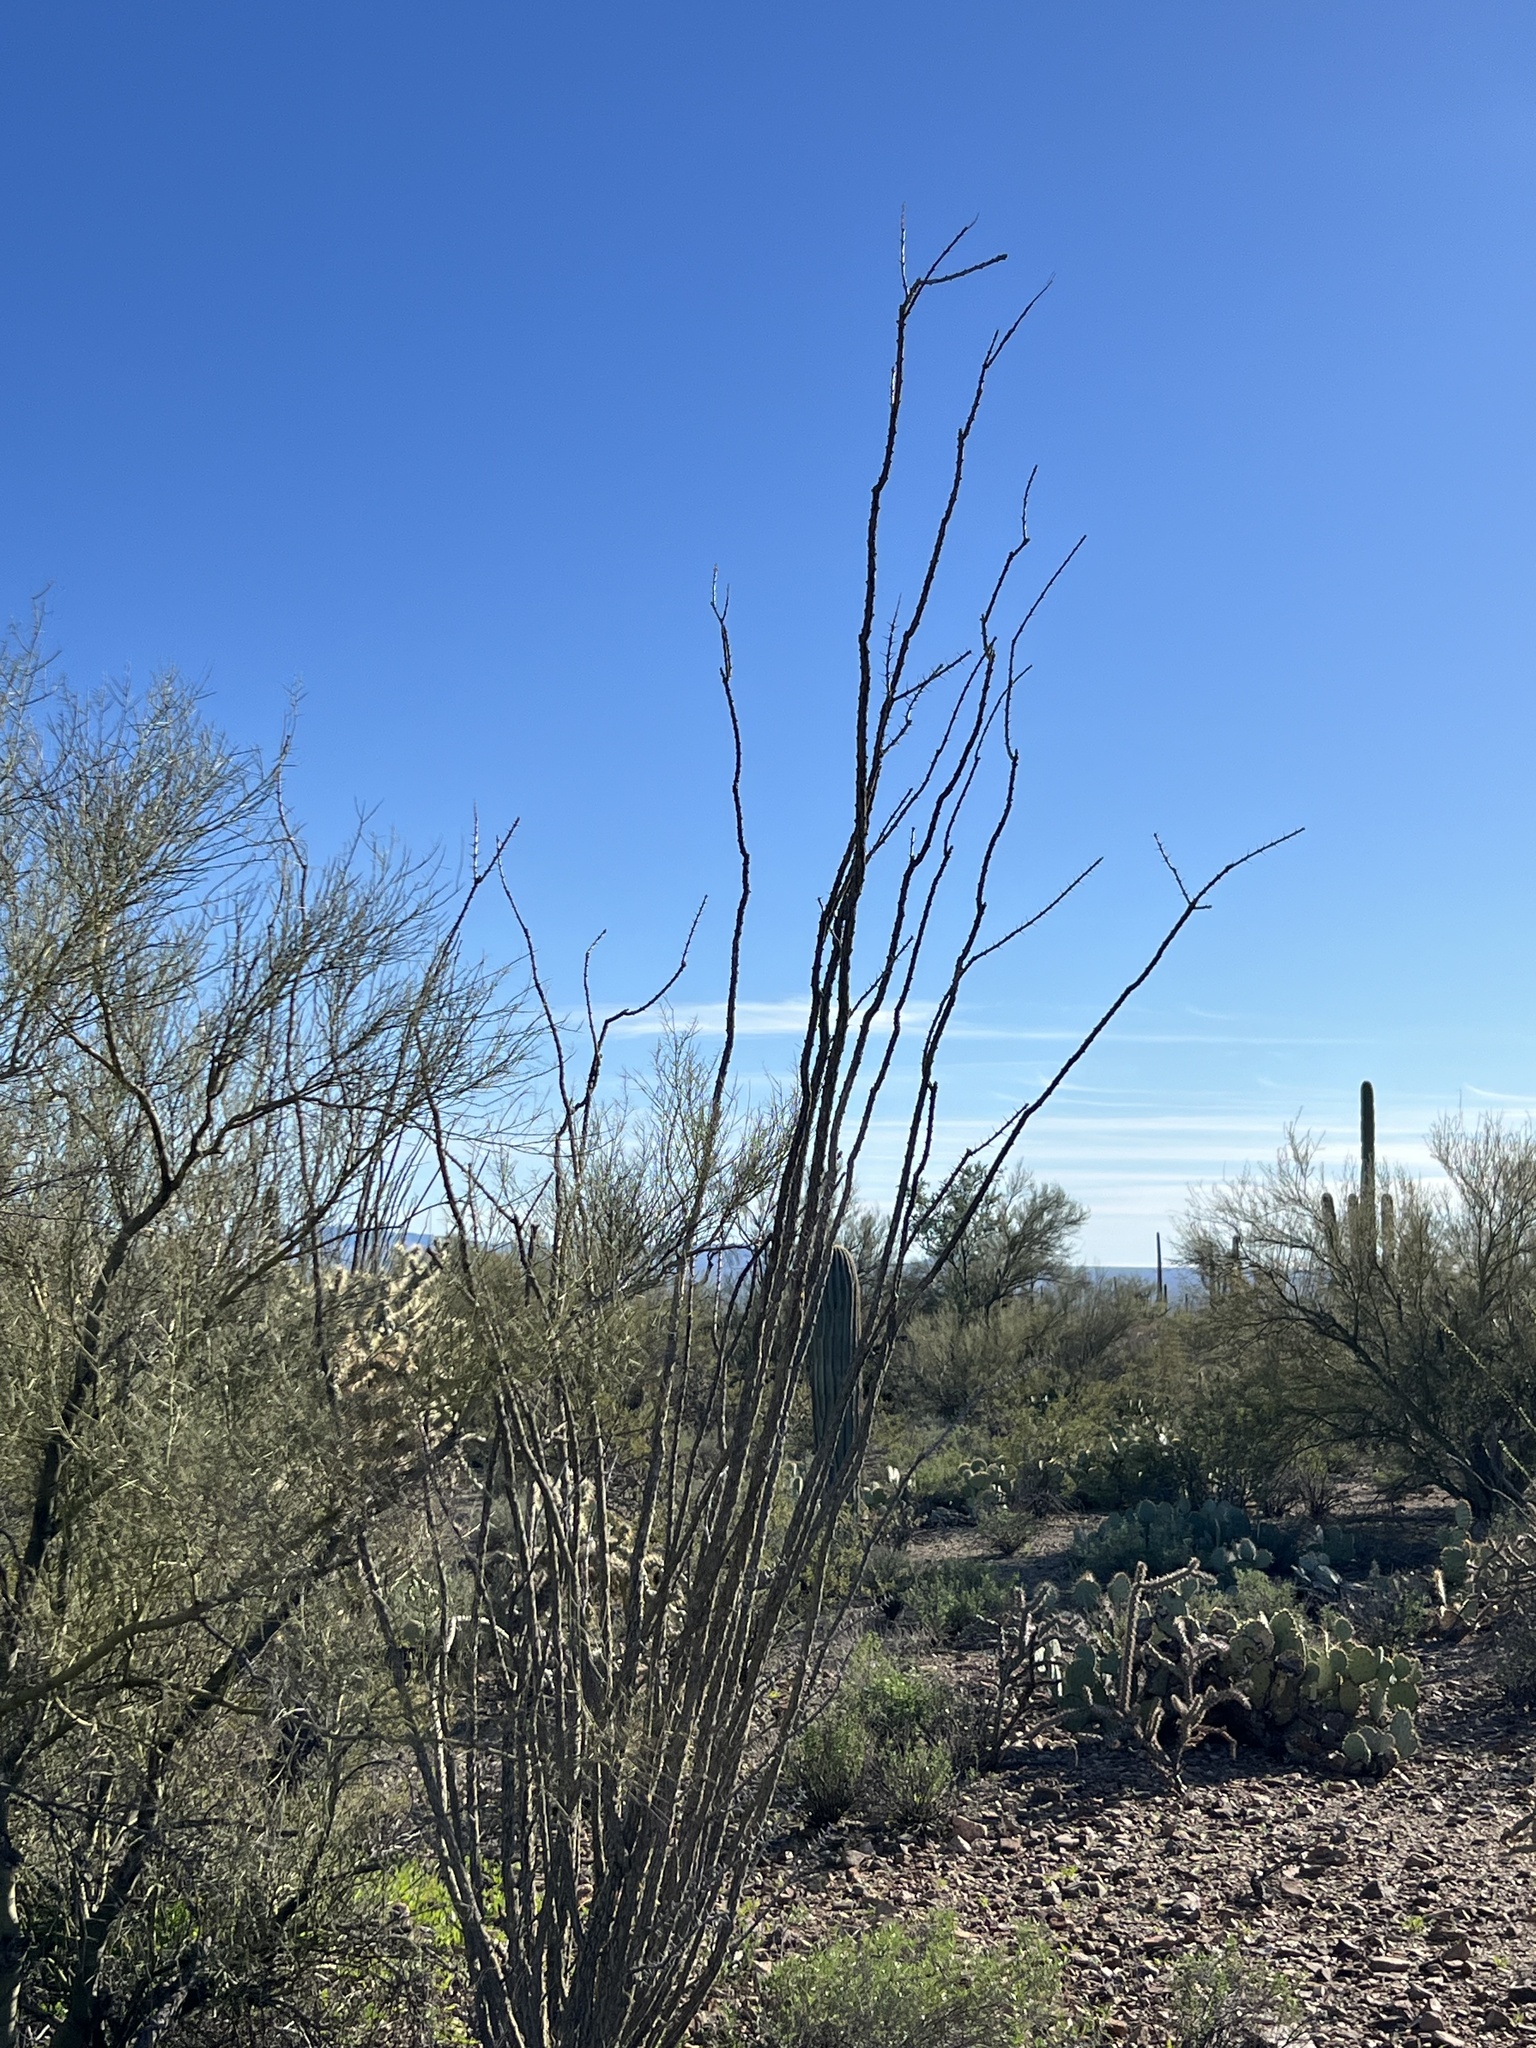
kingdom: Plantae
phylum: Tracheophyta
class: Magnoliopsida
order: Ericales
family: Fouquieriaceae
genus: Fouquieria
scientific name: Fouquieria splendens
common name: Vine-cactus
